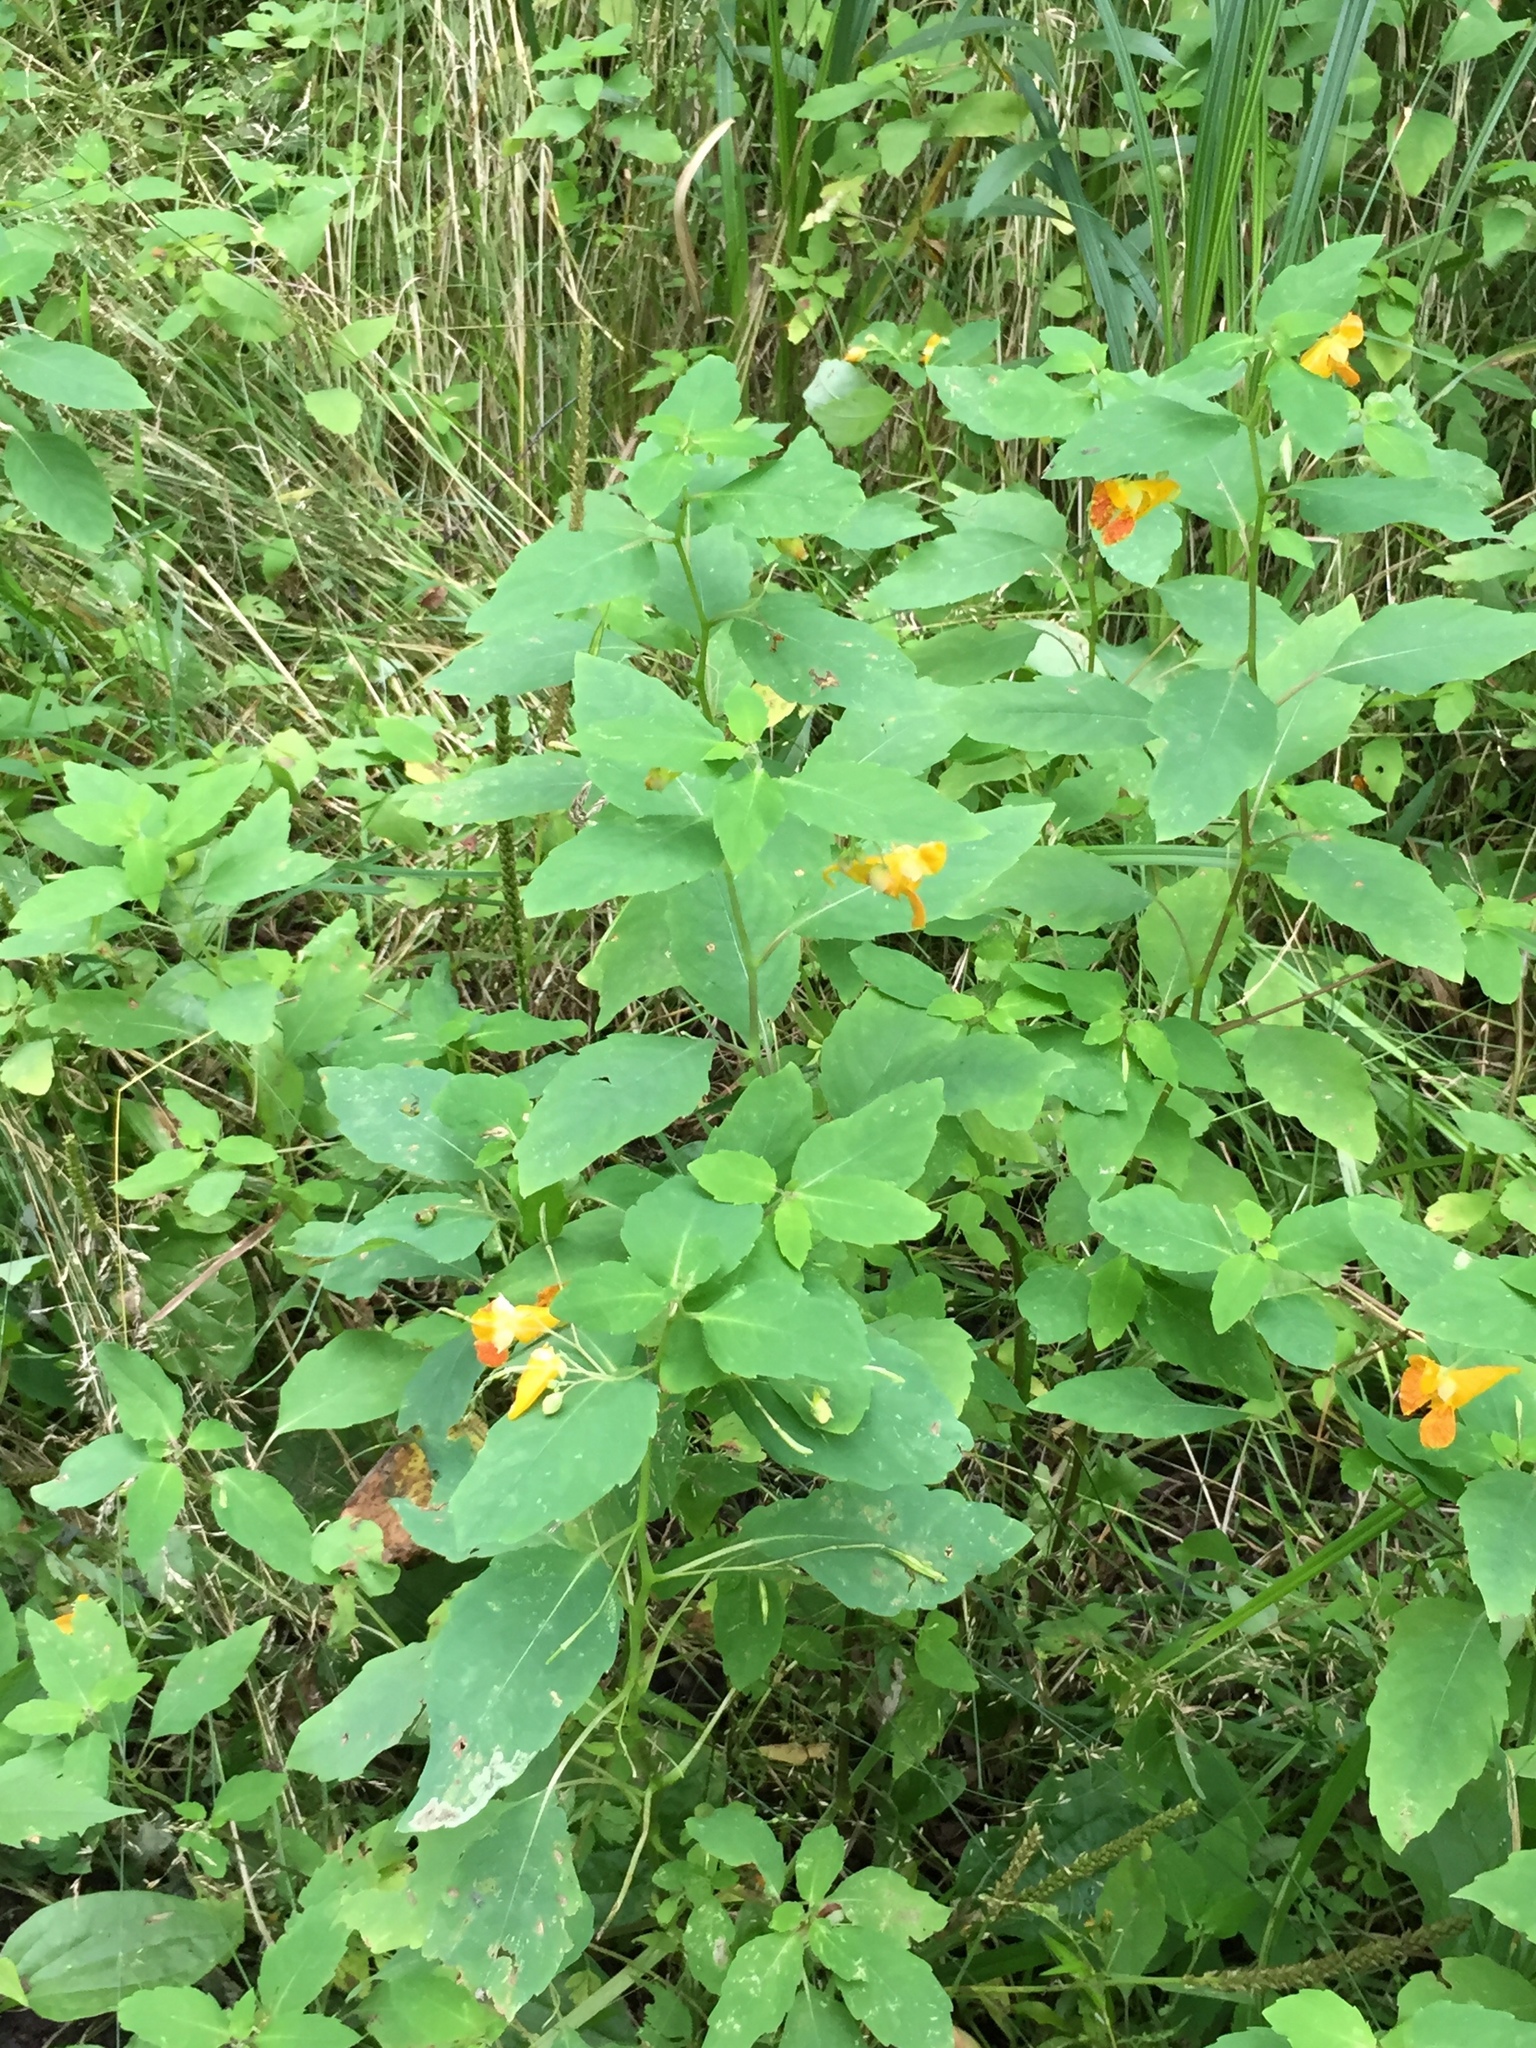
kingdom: Plantae
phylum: Tracheophyta
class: Magnoliopsida
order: Ericales
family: Balsaminaceae
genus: Impatiens
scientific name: Impatiens capensis
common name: Orange balsam
